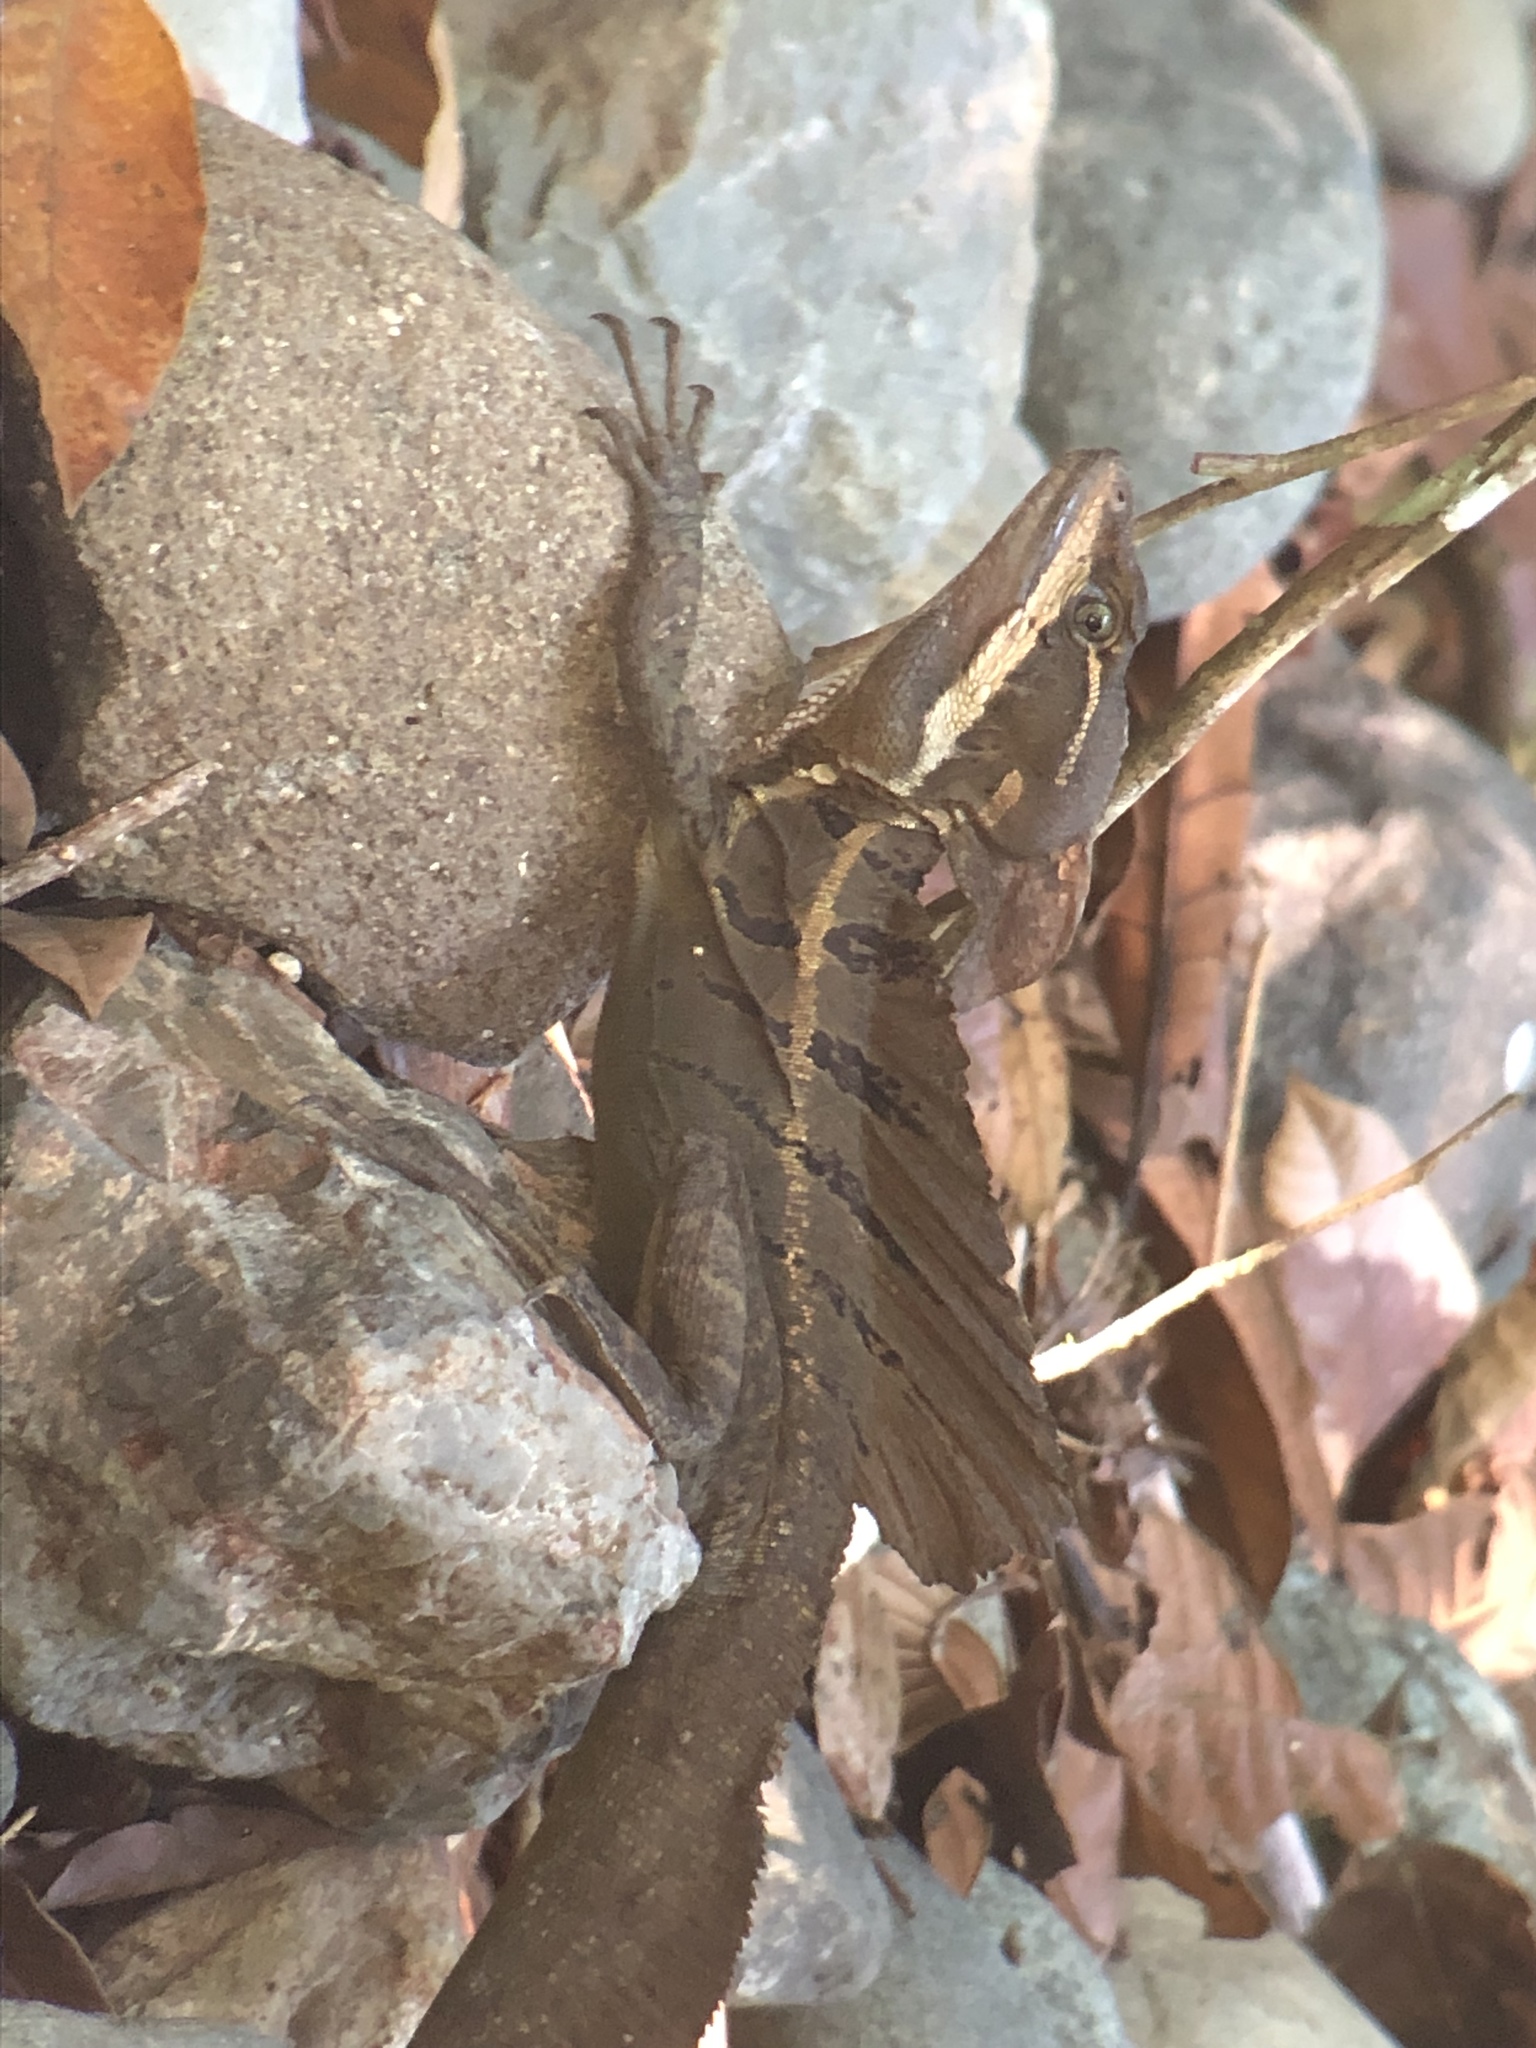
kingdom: Animalia
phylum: Chordata
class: Squamata
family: Corytophanidae
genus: Basiliscus
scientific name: Basiliscus basiliscus
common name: Common basilisk
